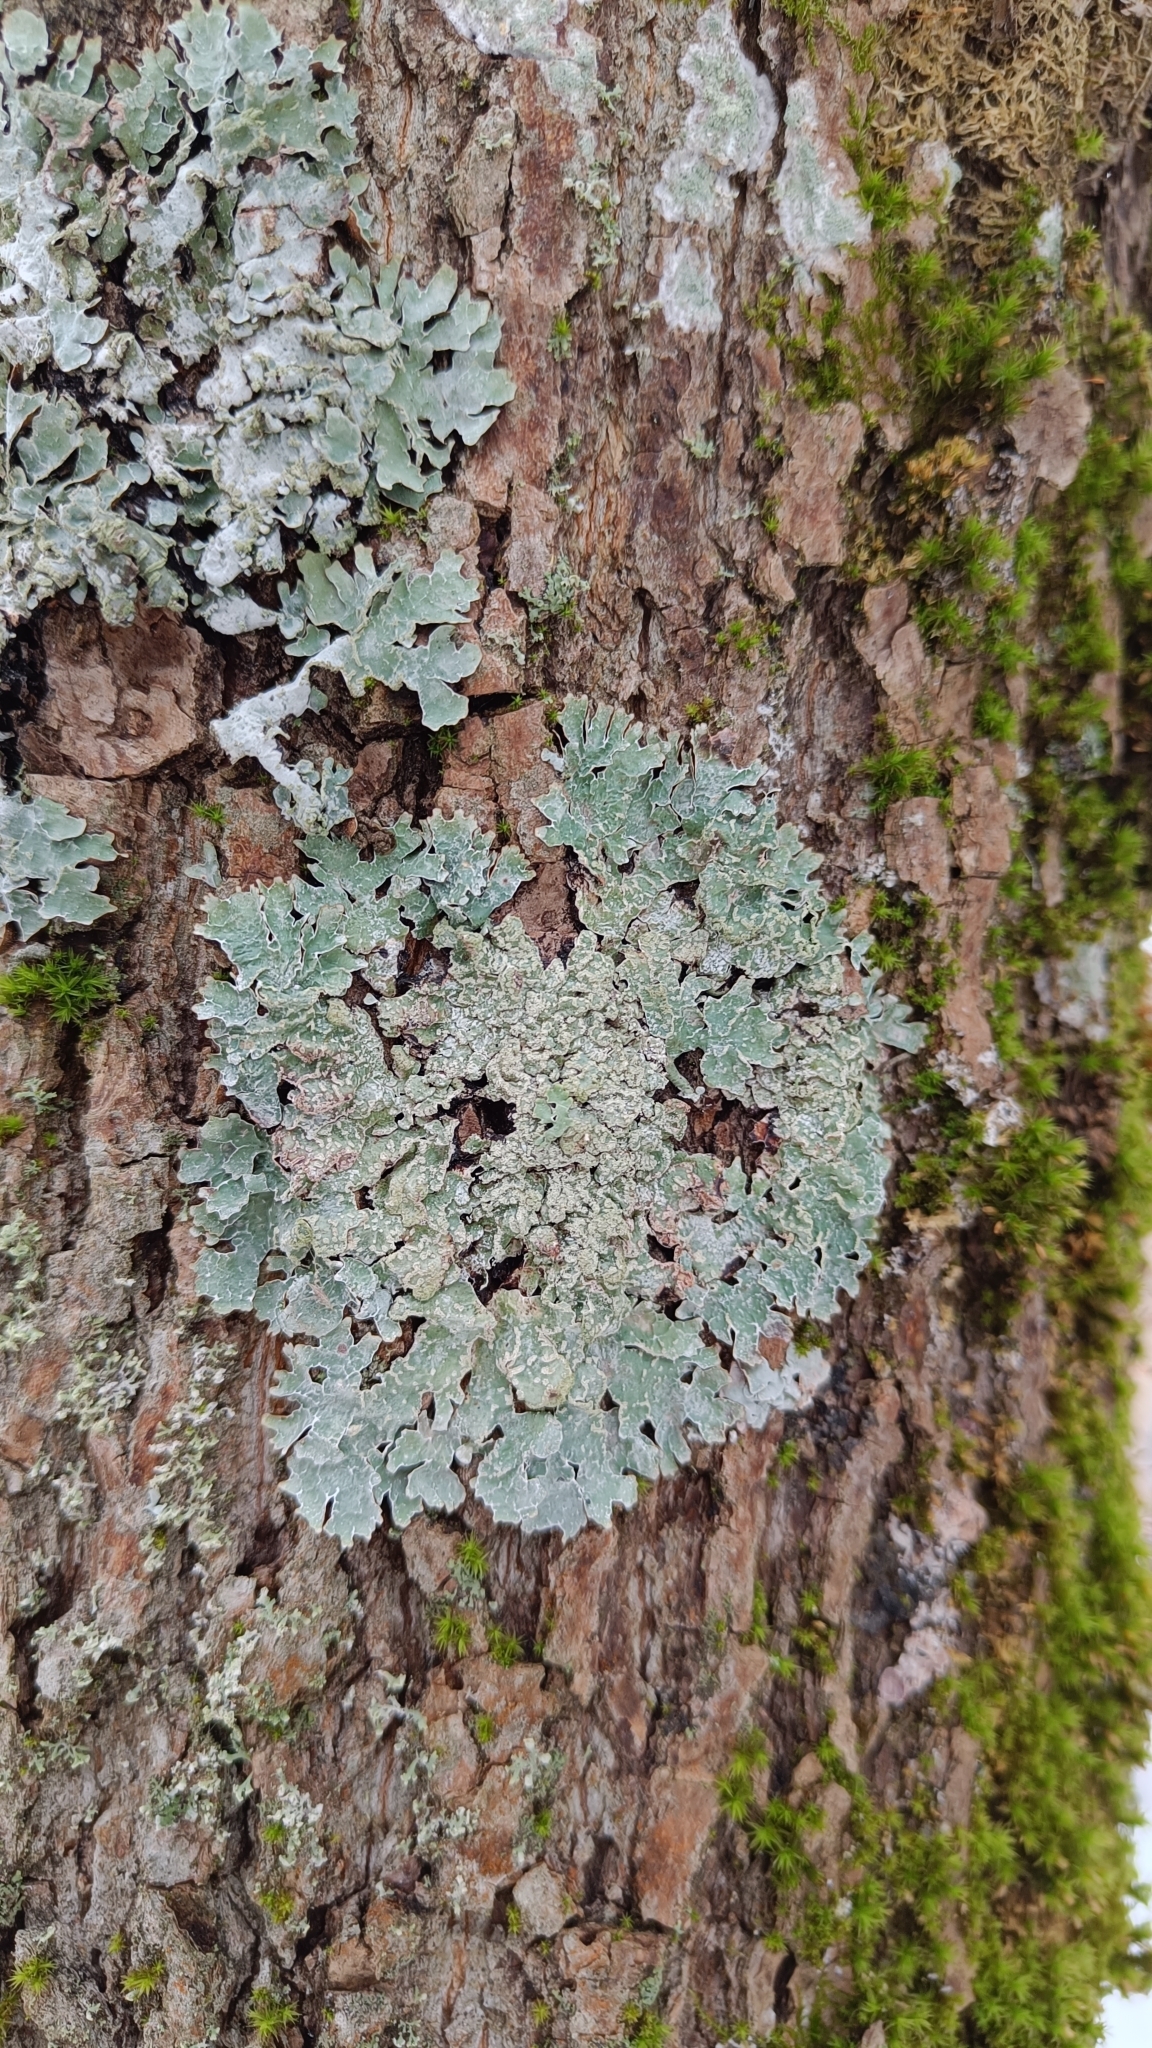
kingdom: Fungi
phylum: Ascomycota
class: Lecanoromycetes
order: Lecanorales
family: Parmeliaceae
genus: Parmelia
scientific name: Parmelia sulcata
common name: Netted shield lichen
